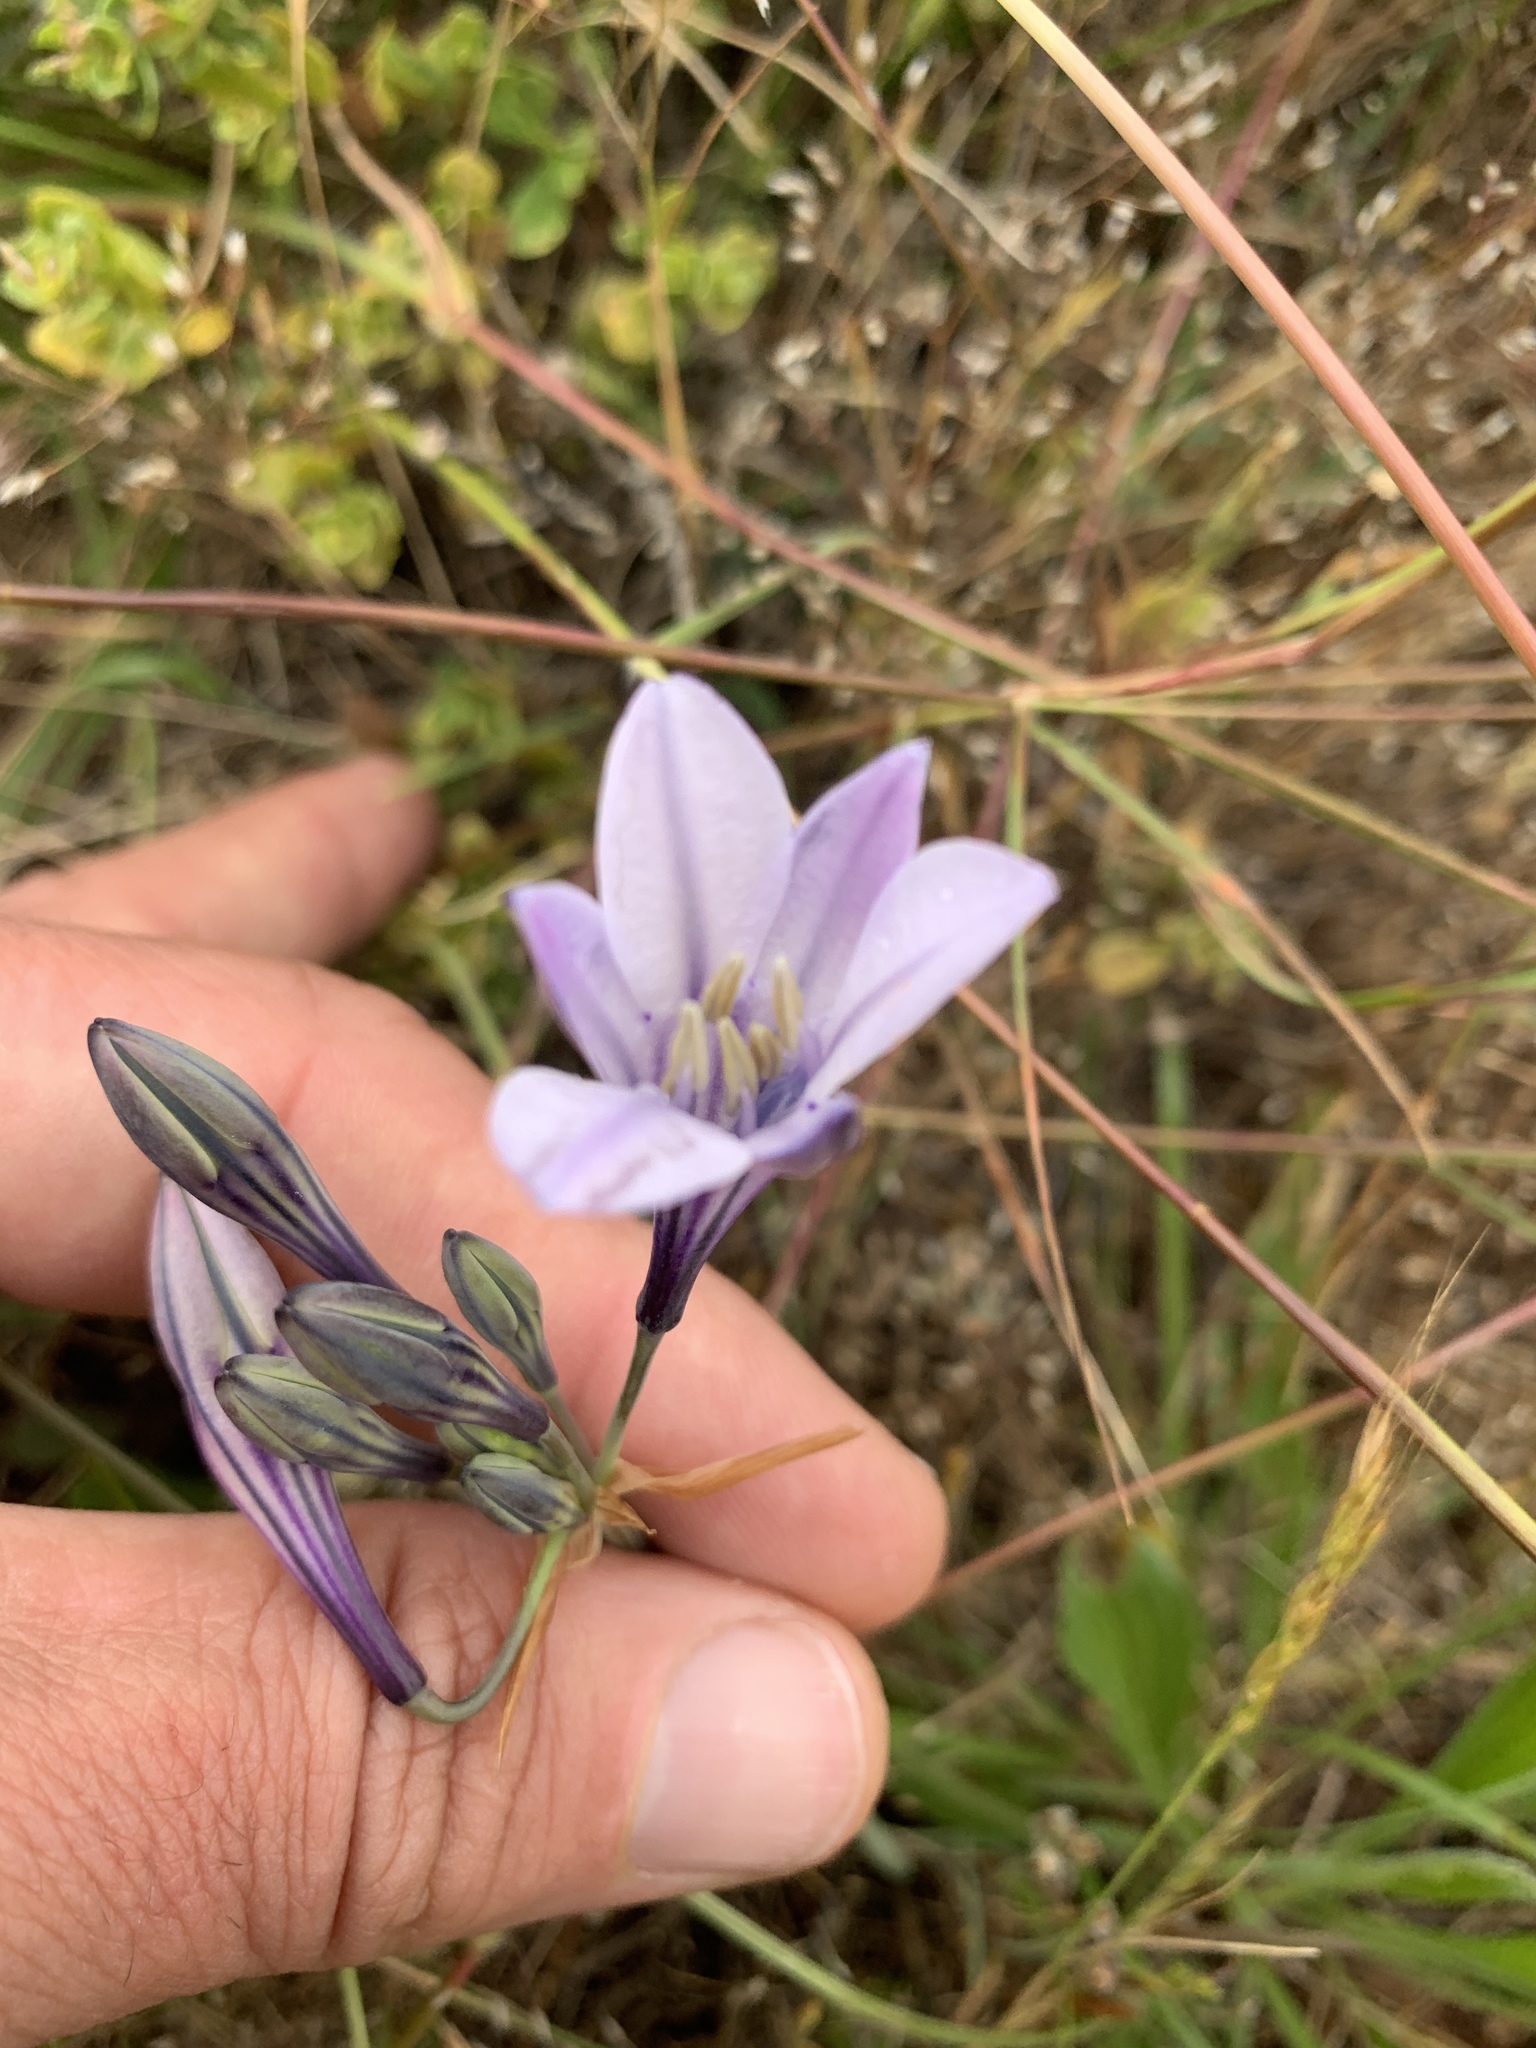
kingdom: Plantae
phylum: Tracheophyta
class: Liliopsida
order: Asparagales
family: Asparagaceae
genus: Triteleia
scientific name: Triteleia laxa
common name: Triplet-lily
